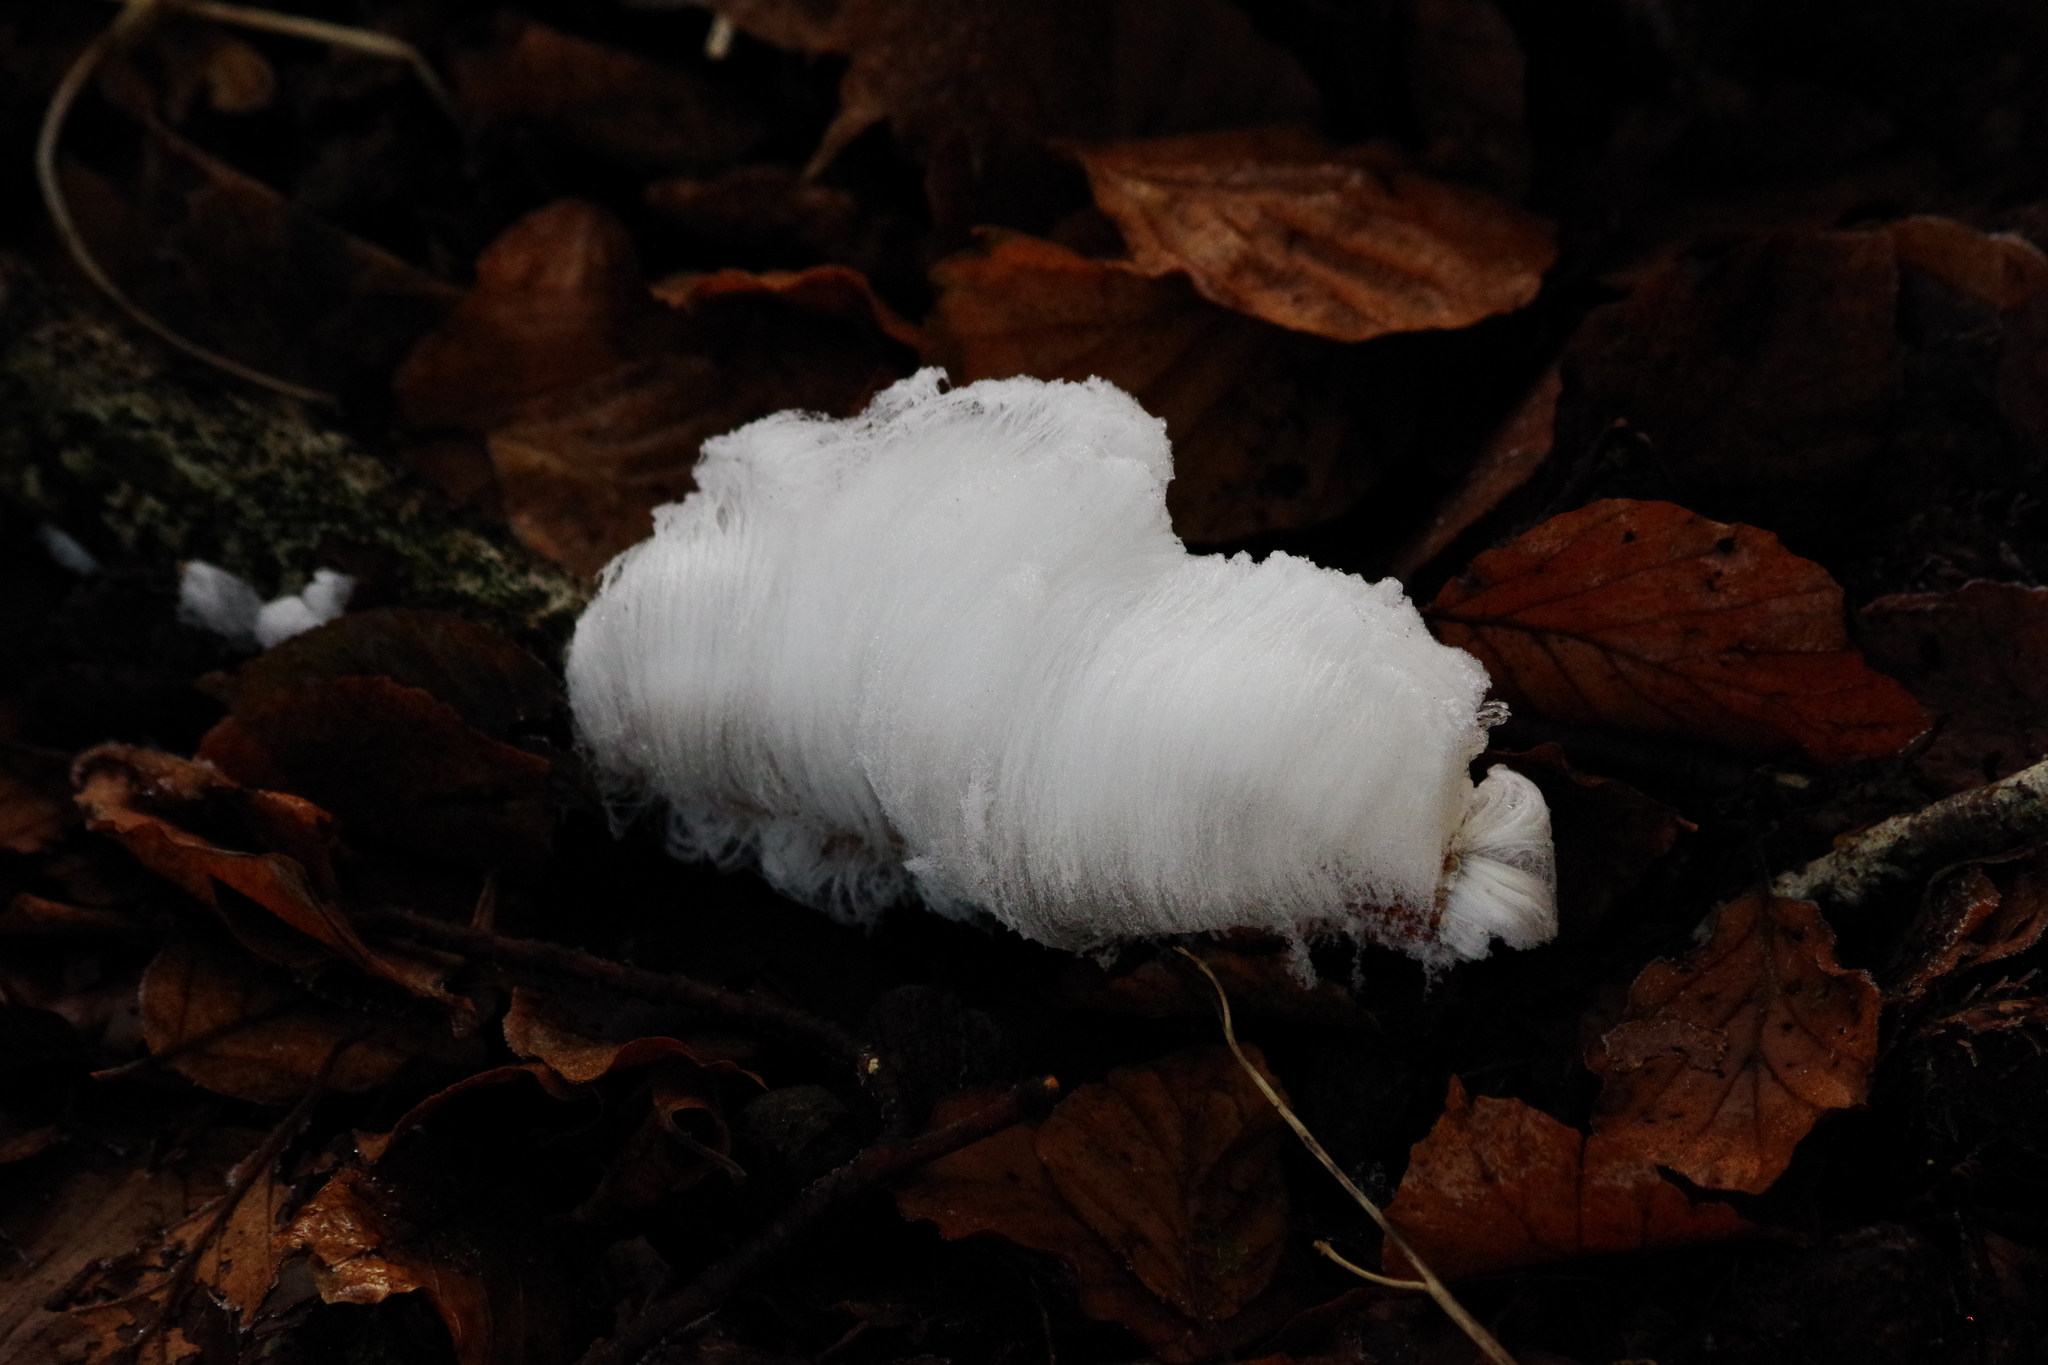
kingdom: Fungi
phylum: Basidiomycota
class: Agaricomycetes
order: Auriculariales
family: Auriculariaceae
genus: Exidiopsis
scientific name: Exidiopsis effusa
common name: Hair ice crust
